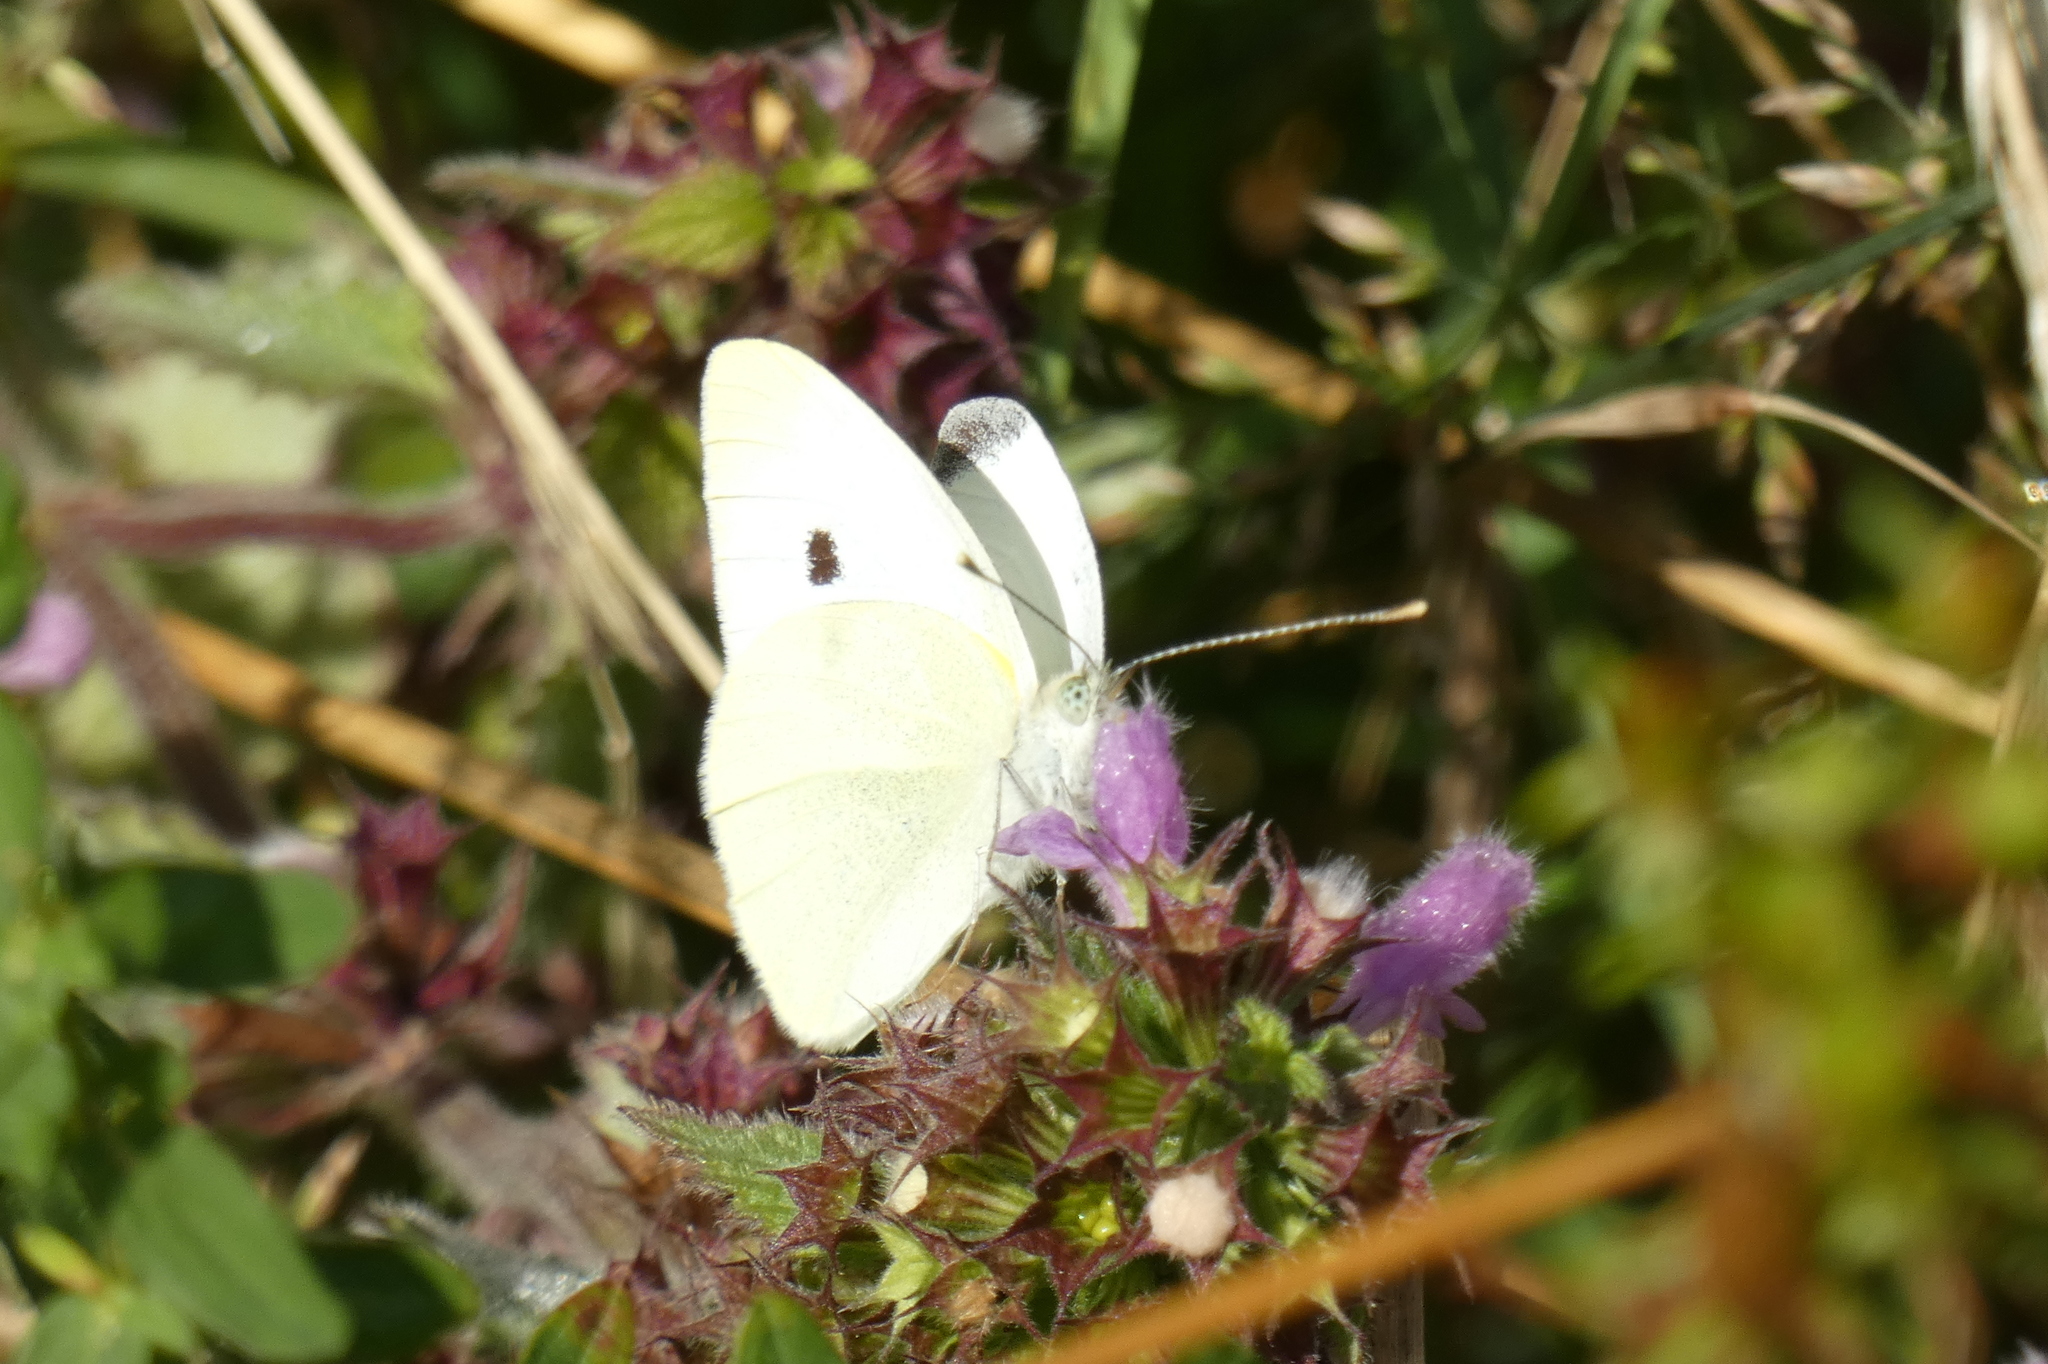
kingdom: Animalia
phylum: Arthropoda
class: Insecta
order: Lepidoptera
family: Pieridae
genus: Pieris
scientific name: Pieris rapae
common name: Small white
